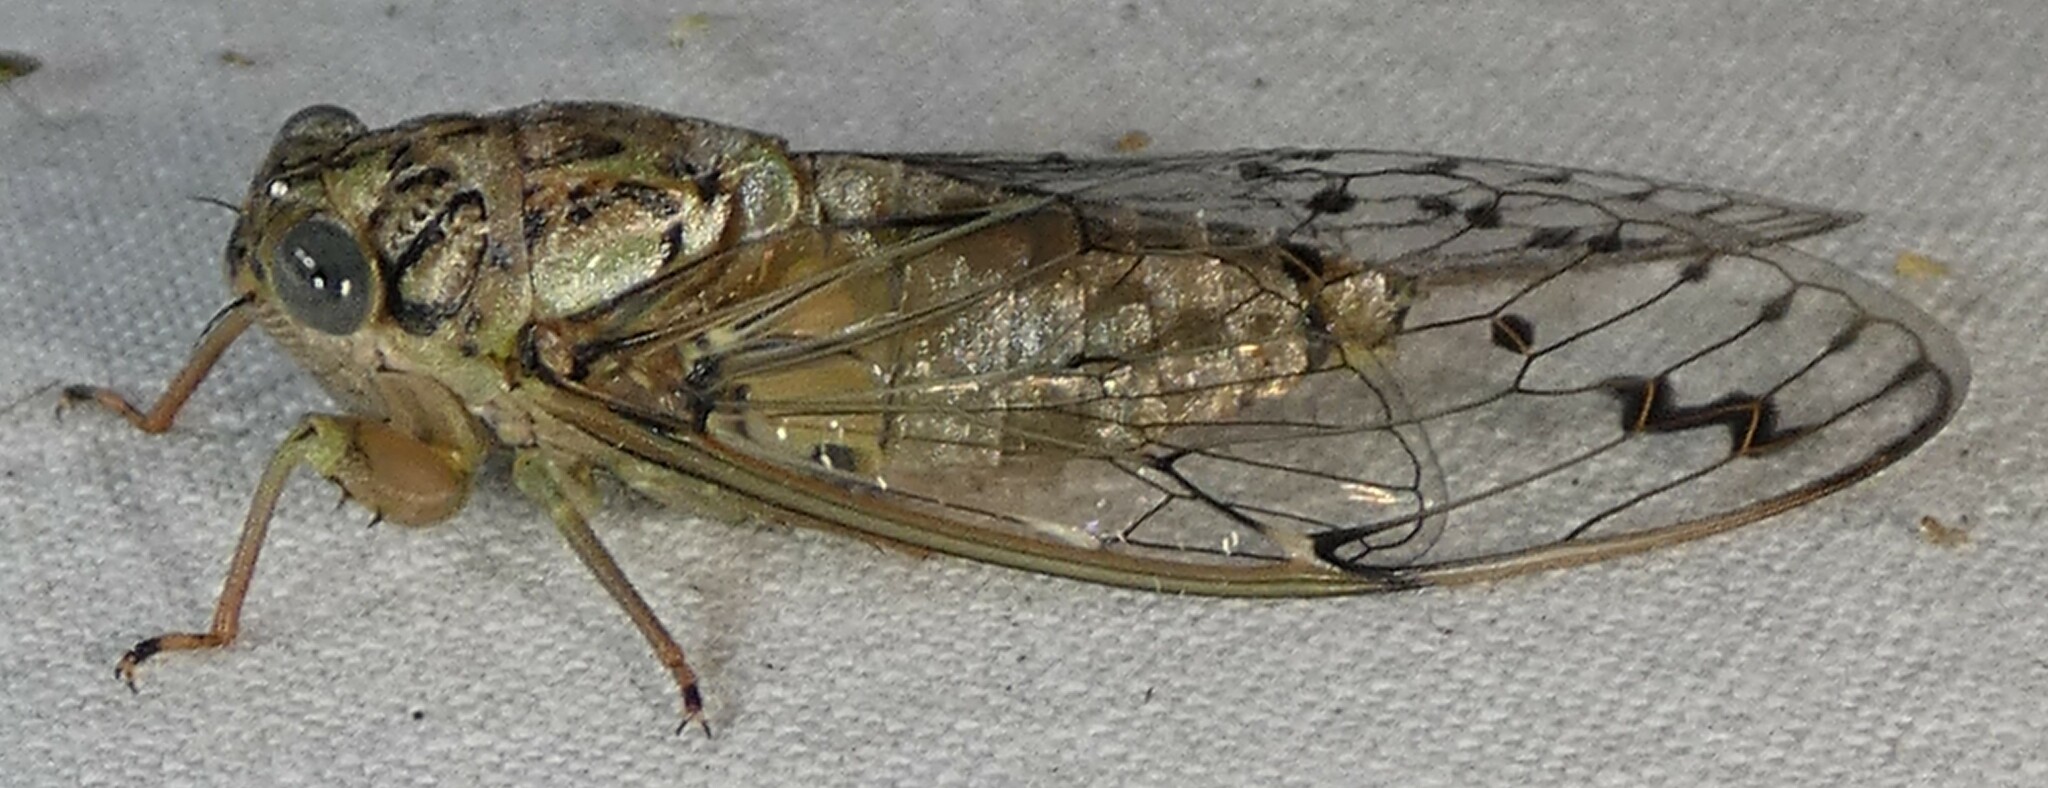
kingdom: Animalia
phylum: Arthropoda
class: Insecta
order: Hemiptera
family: Cicadidae
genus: Neocicada
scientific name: Neocicada hieroglyphica
